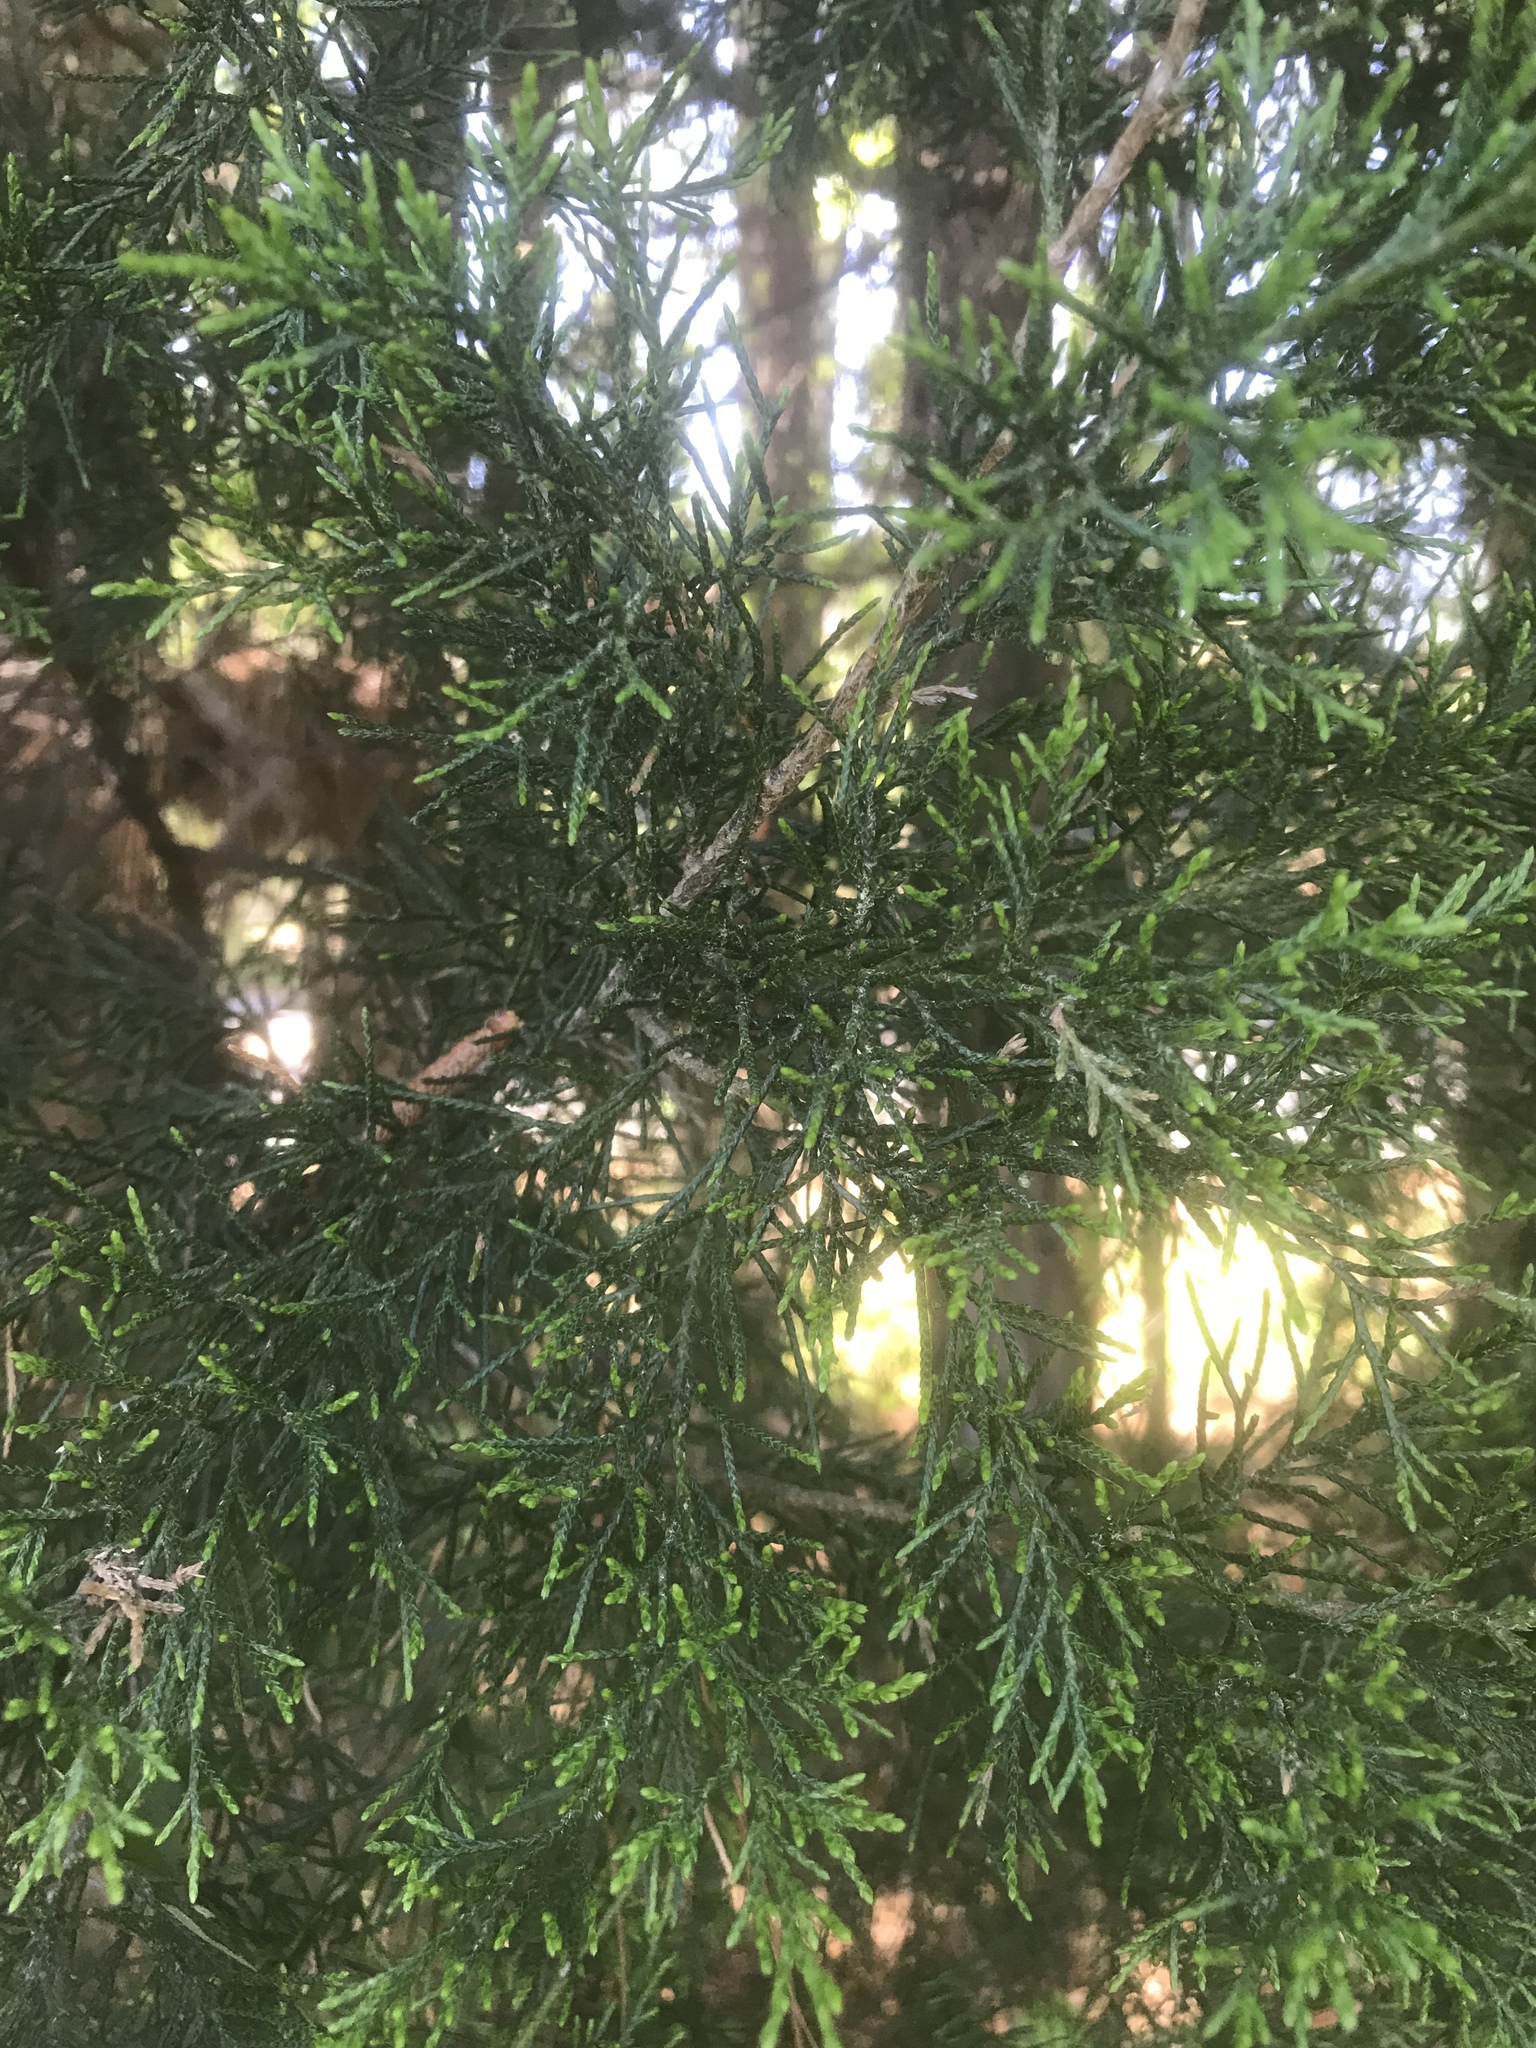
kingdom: Plantae
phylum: Tracheophyta
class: Pinopsida
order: Pinales
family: Cupressaceae
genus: Juniperus
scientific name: Juniperus virginiana
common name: Red juniper
